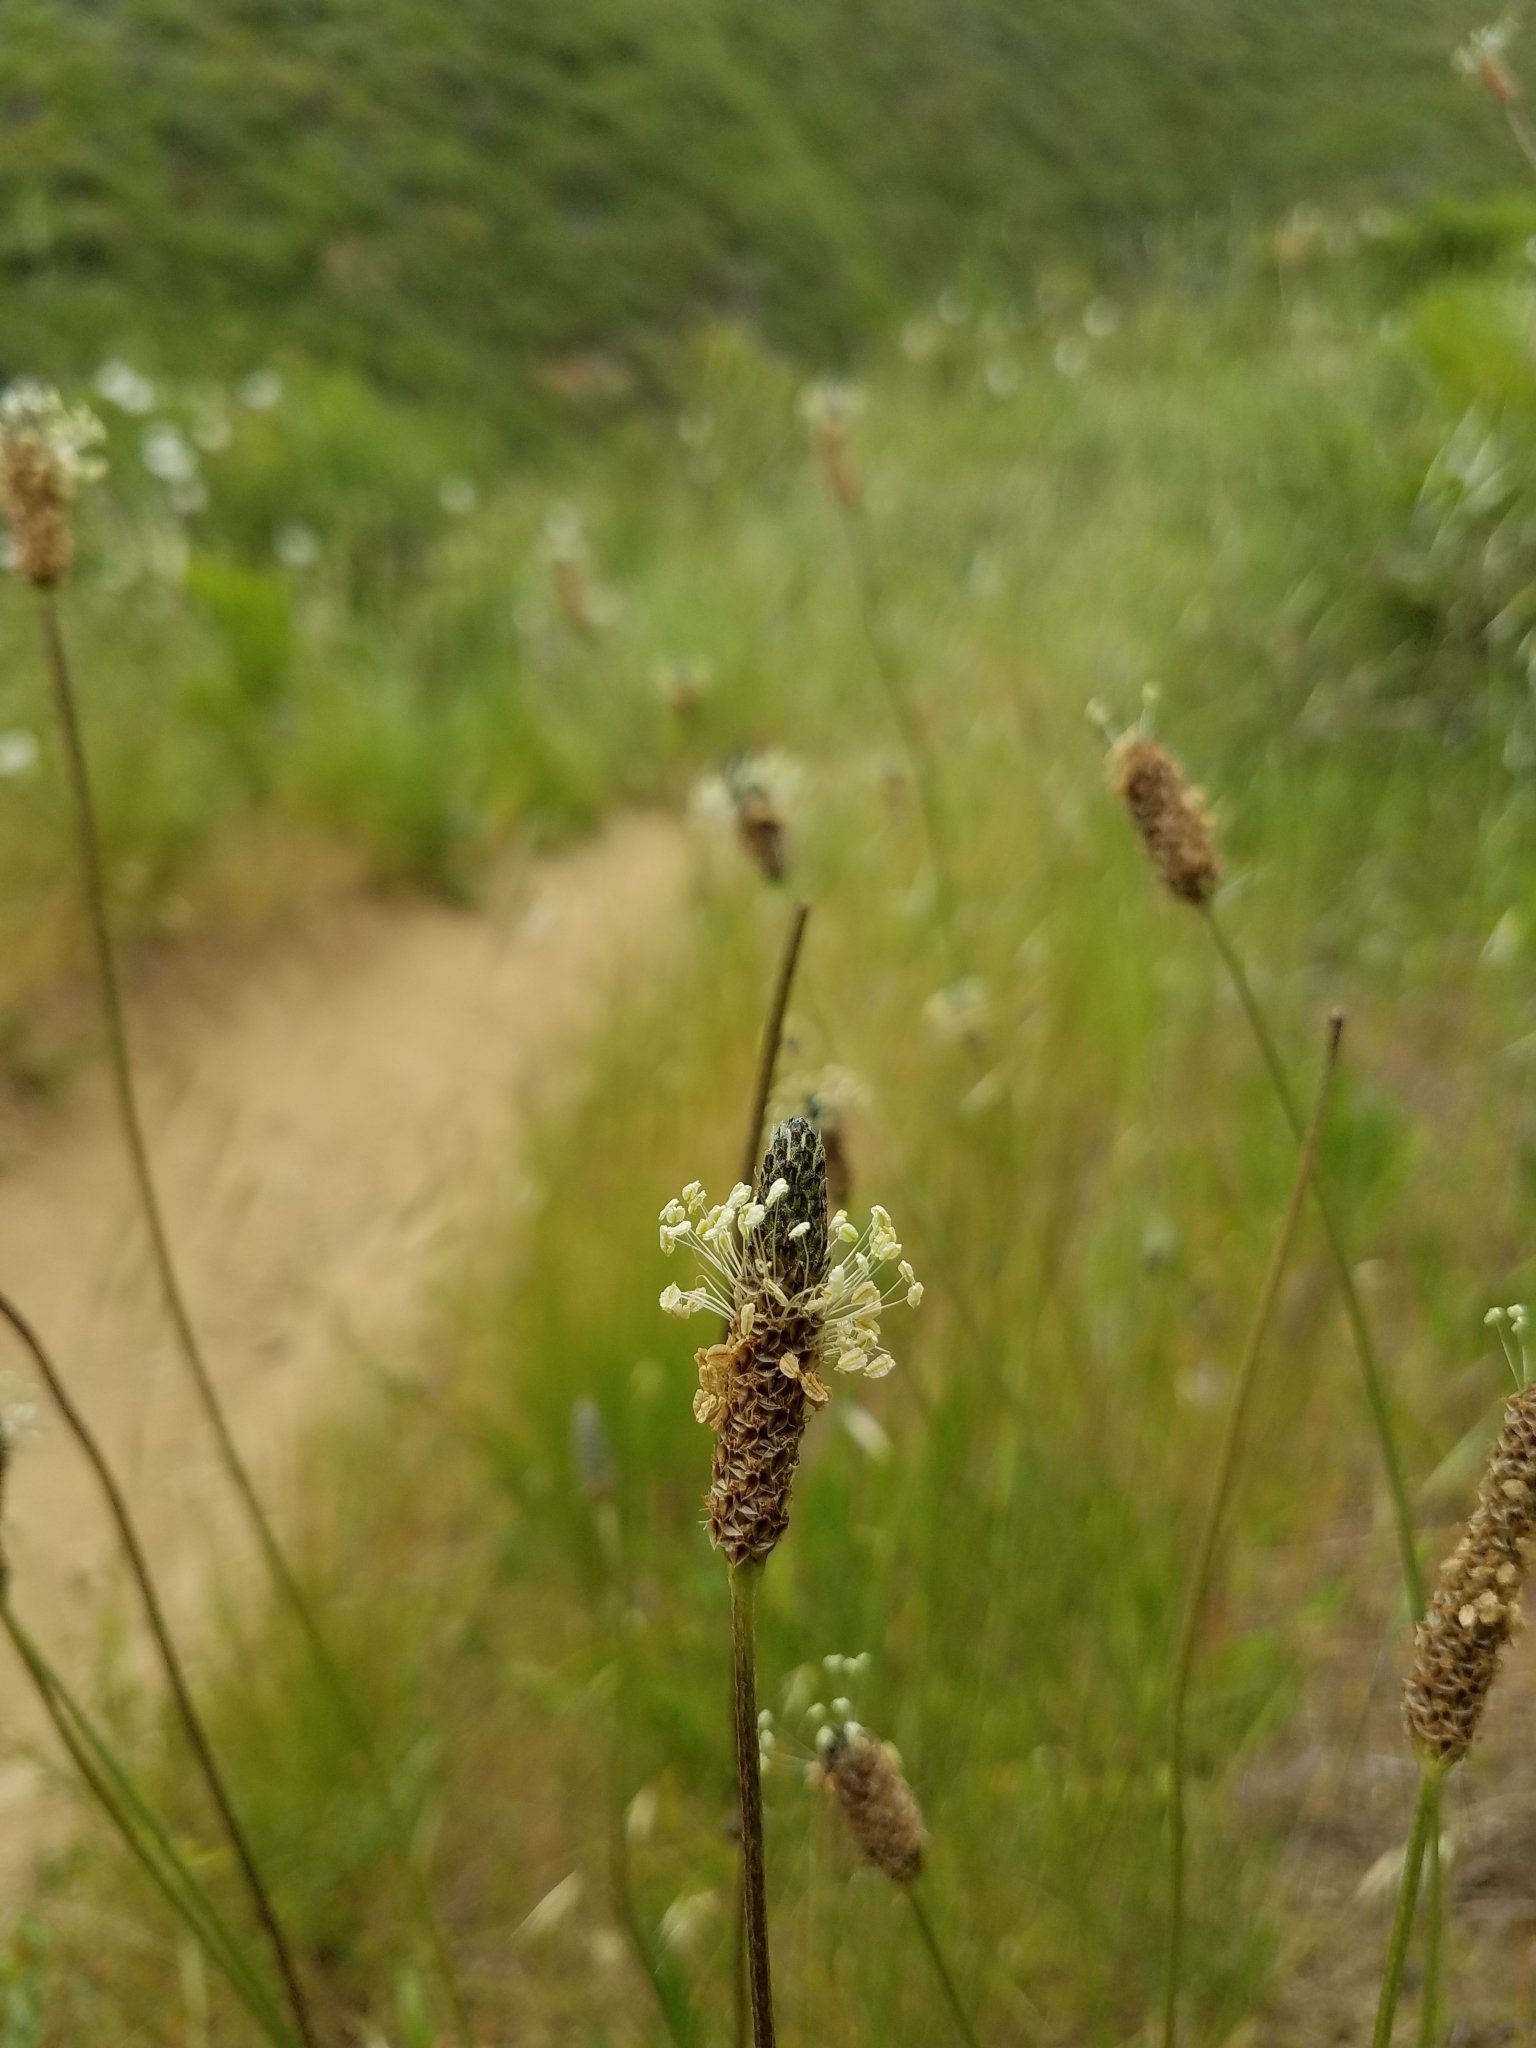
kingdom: Plantae
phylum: Tracheophyta
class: Magnoliopsida
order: Lamiales
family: Plantaginaceae
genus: Plantago
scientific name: Plantago lanceolata
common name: Ribwort plantain
